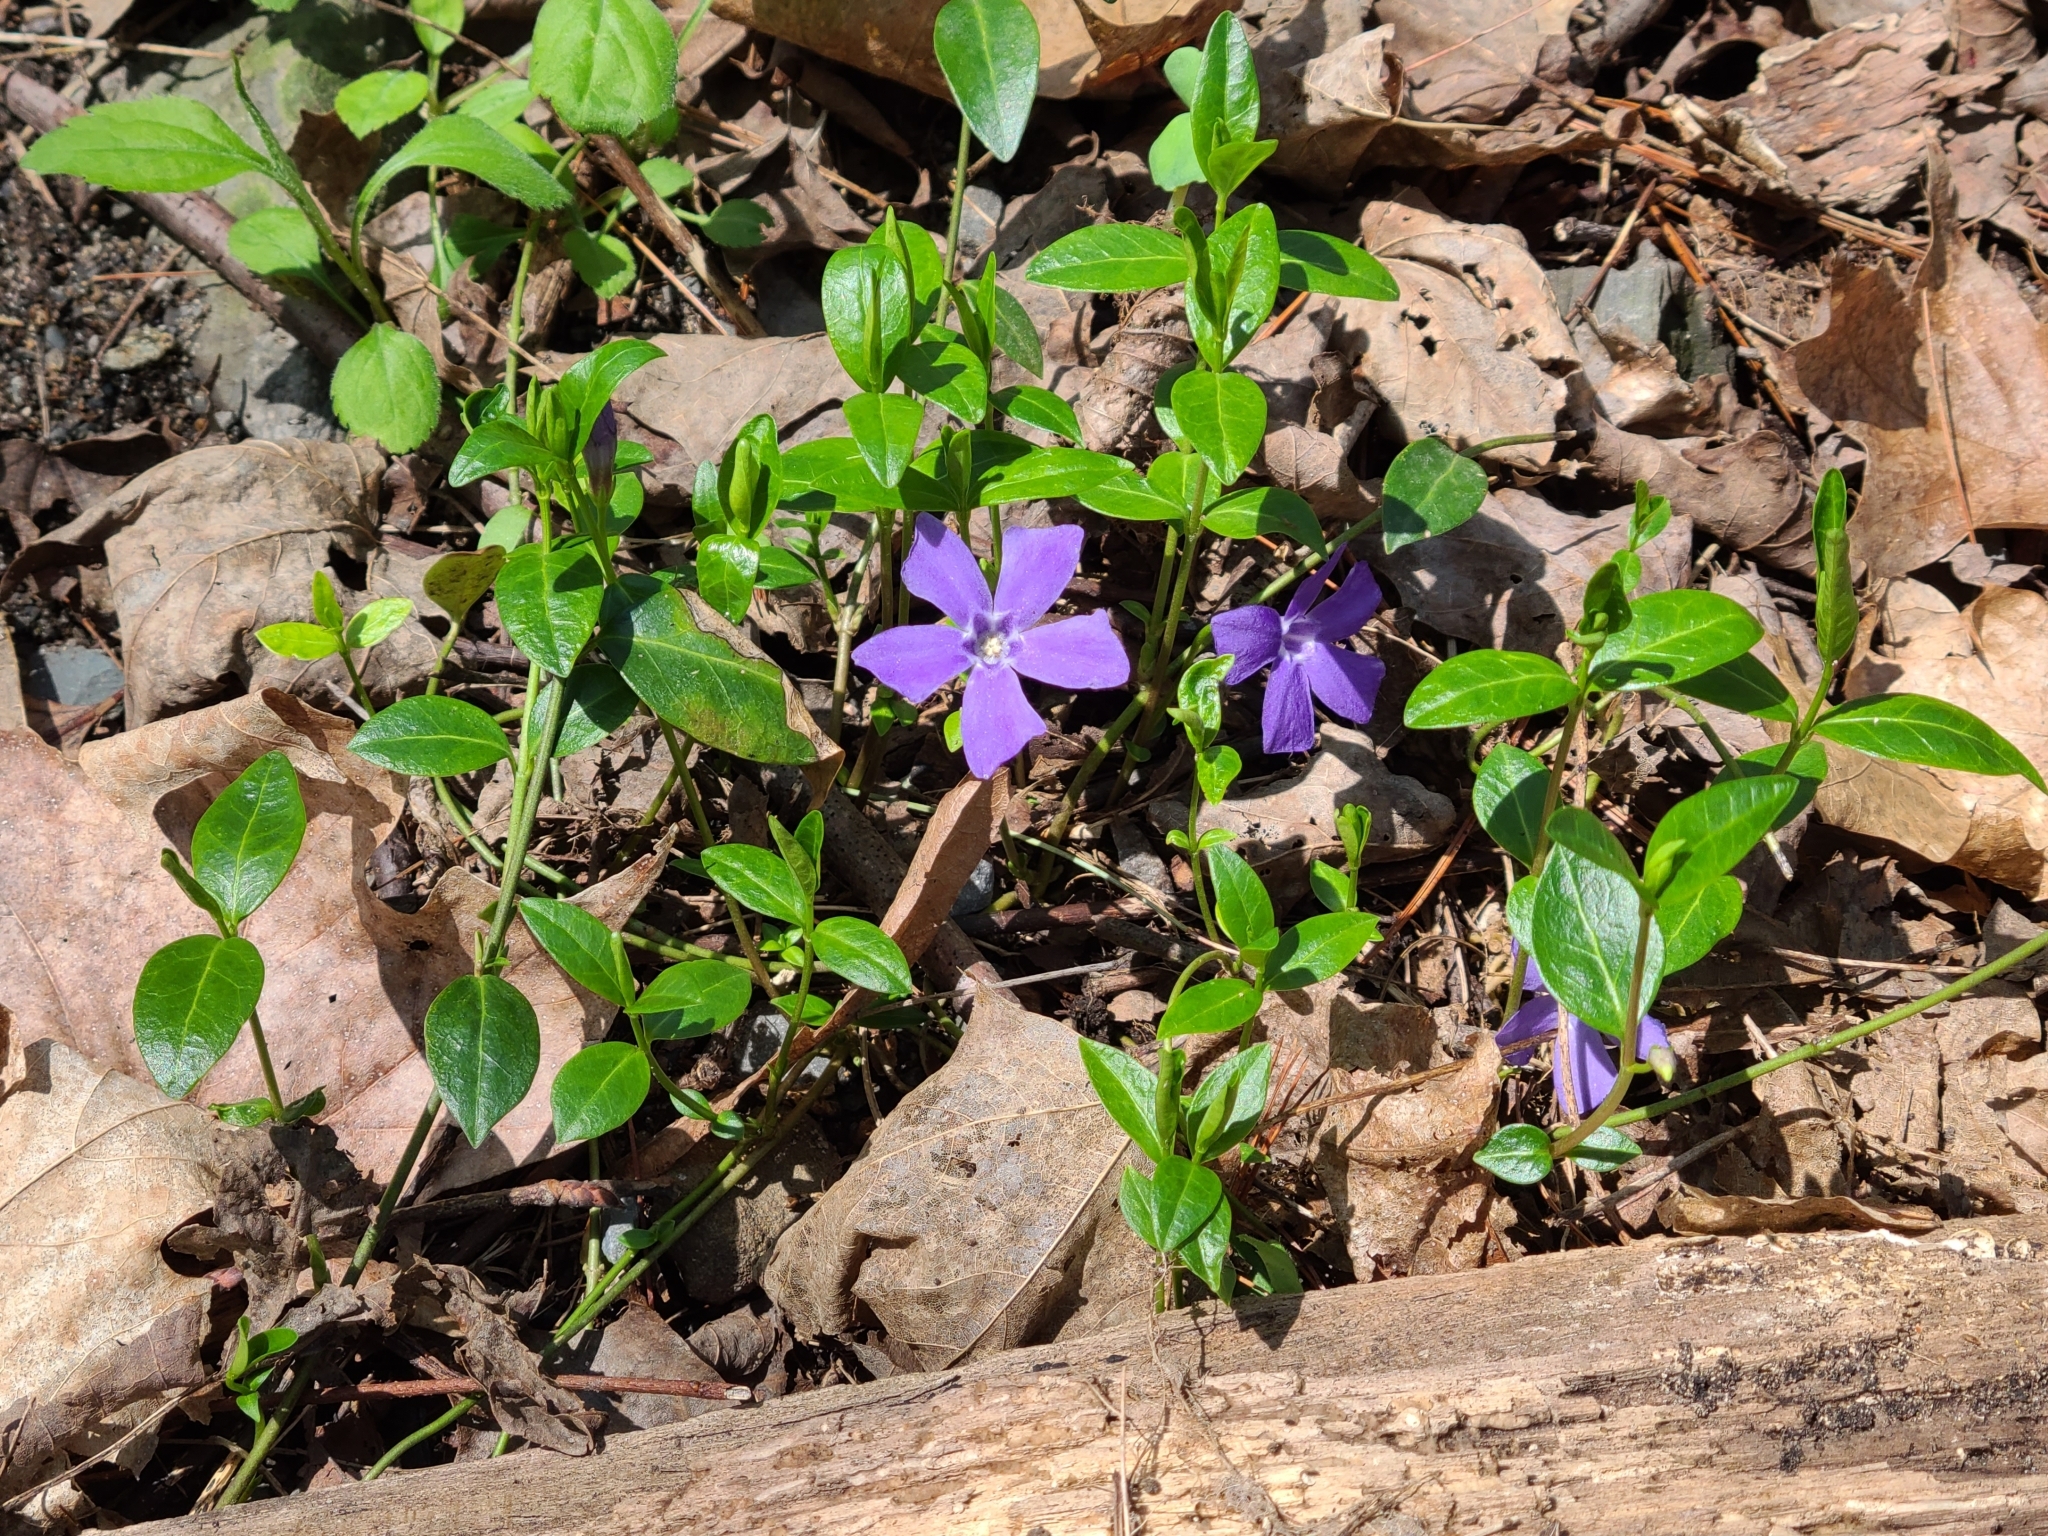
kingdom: Plantae
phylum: Tracheophyta
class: Magnoliopsida
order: Gentianales
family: Apocynaceae
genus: Vinca
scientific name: Vinca minor
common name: Lesser periwinkle
